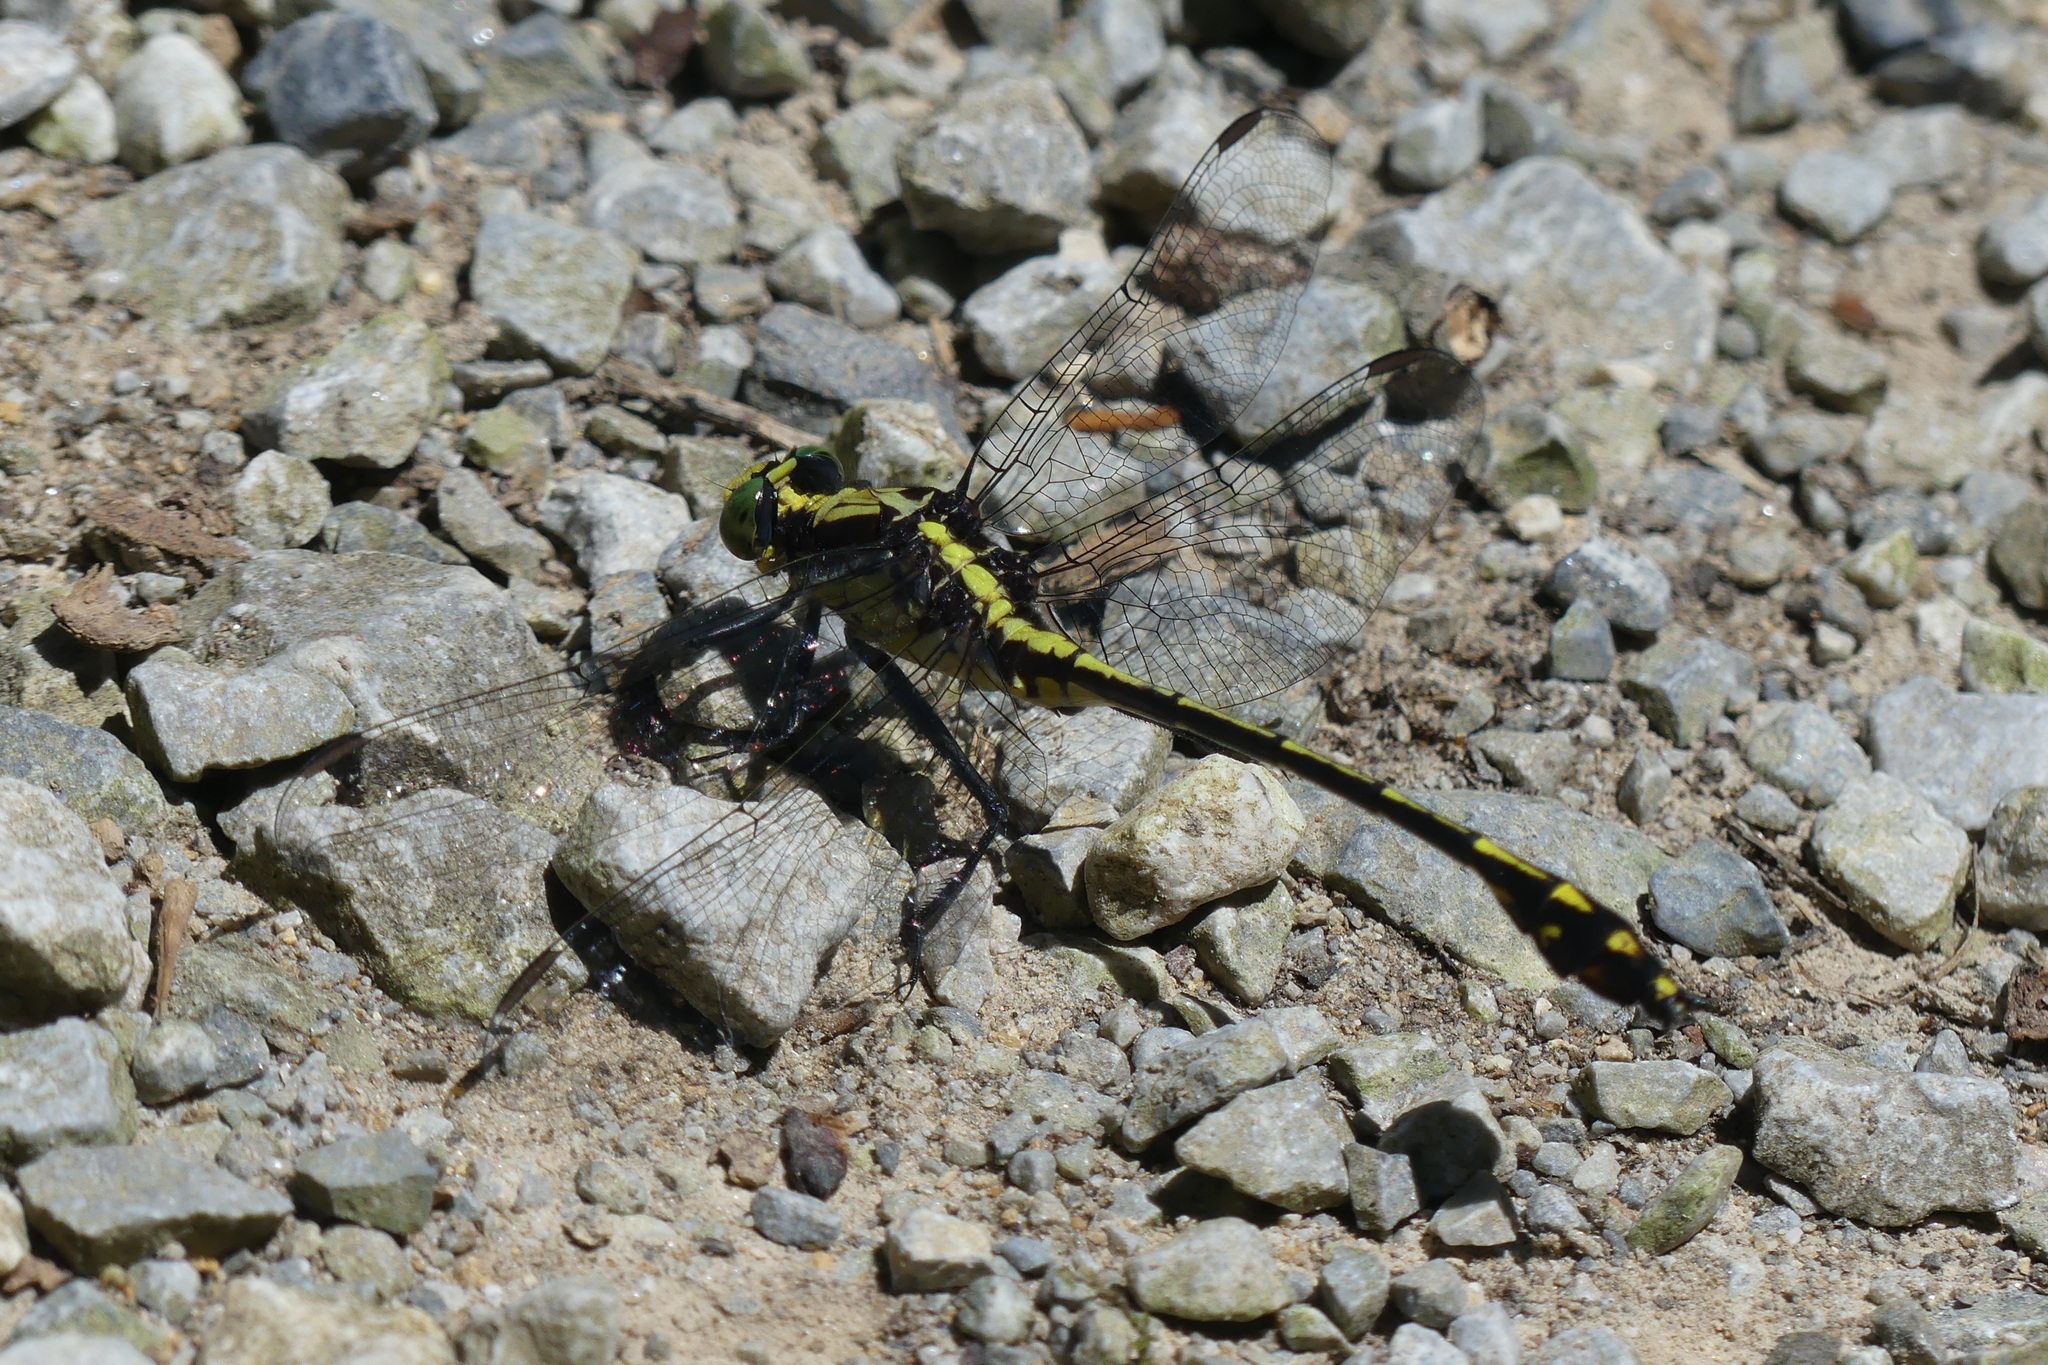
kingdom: Animalia
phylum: Arthropoda
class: Insecta
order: Odonata
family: Gomphidae
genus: Dromogomphus
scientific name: Dromogomphus spinosus
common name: Black-shouldered spinyleg
